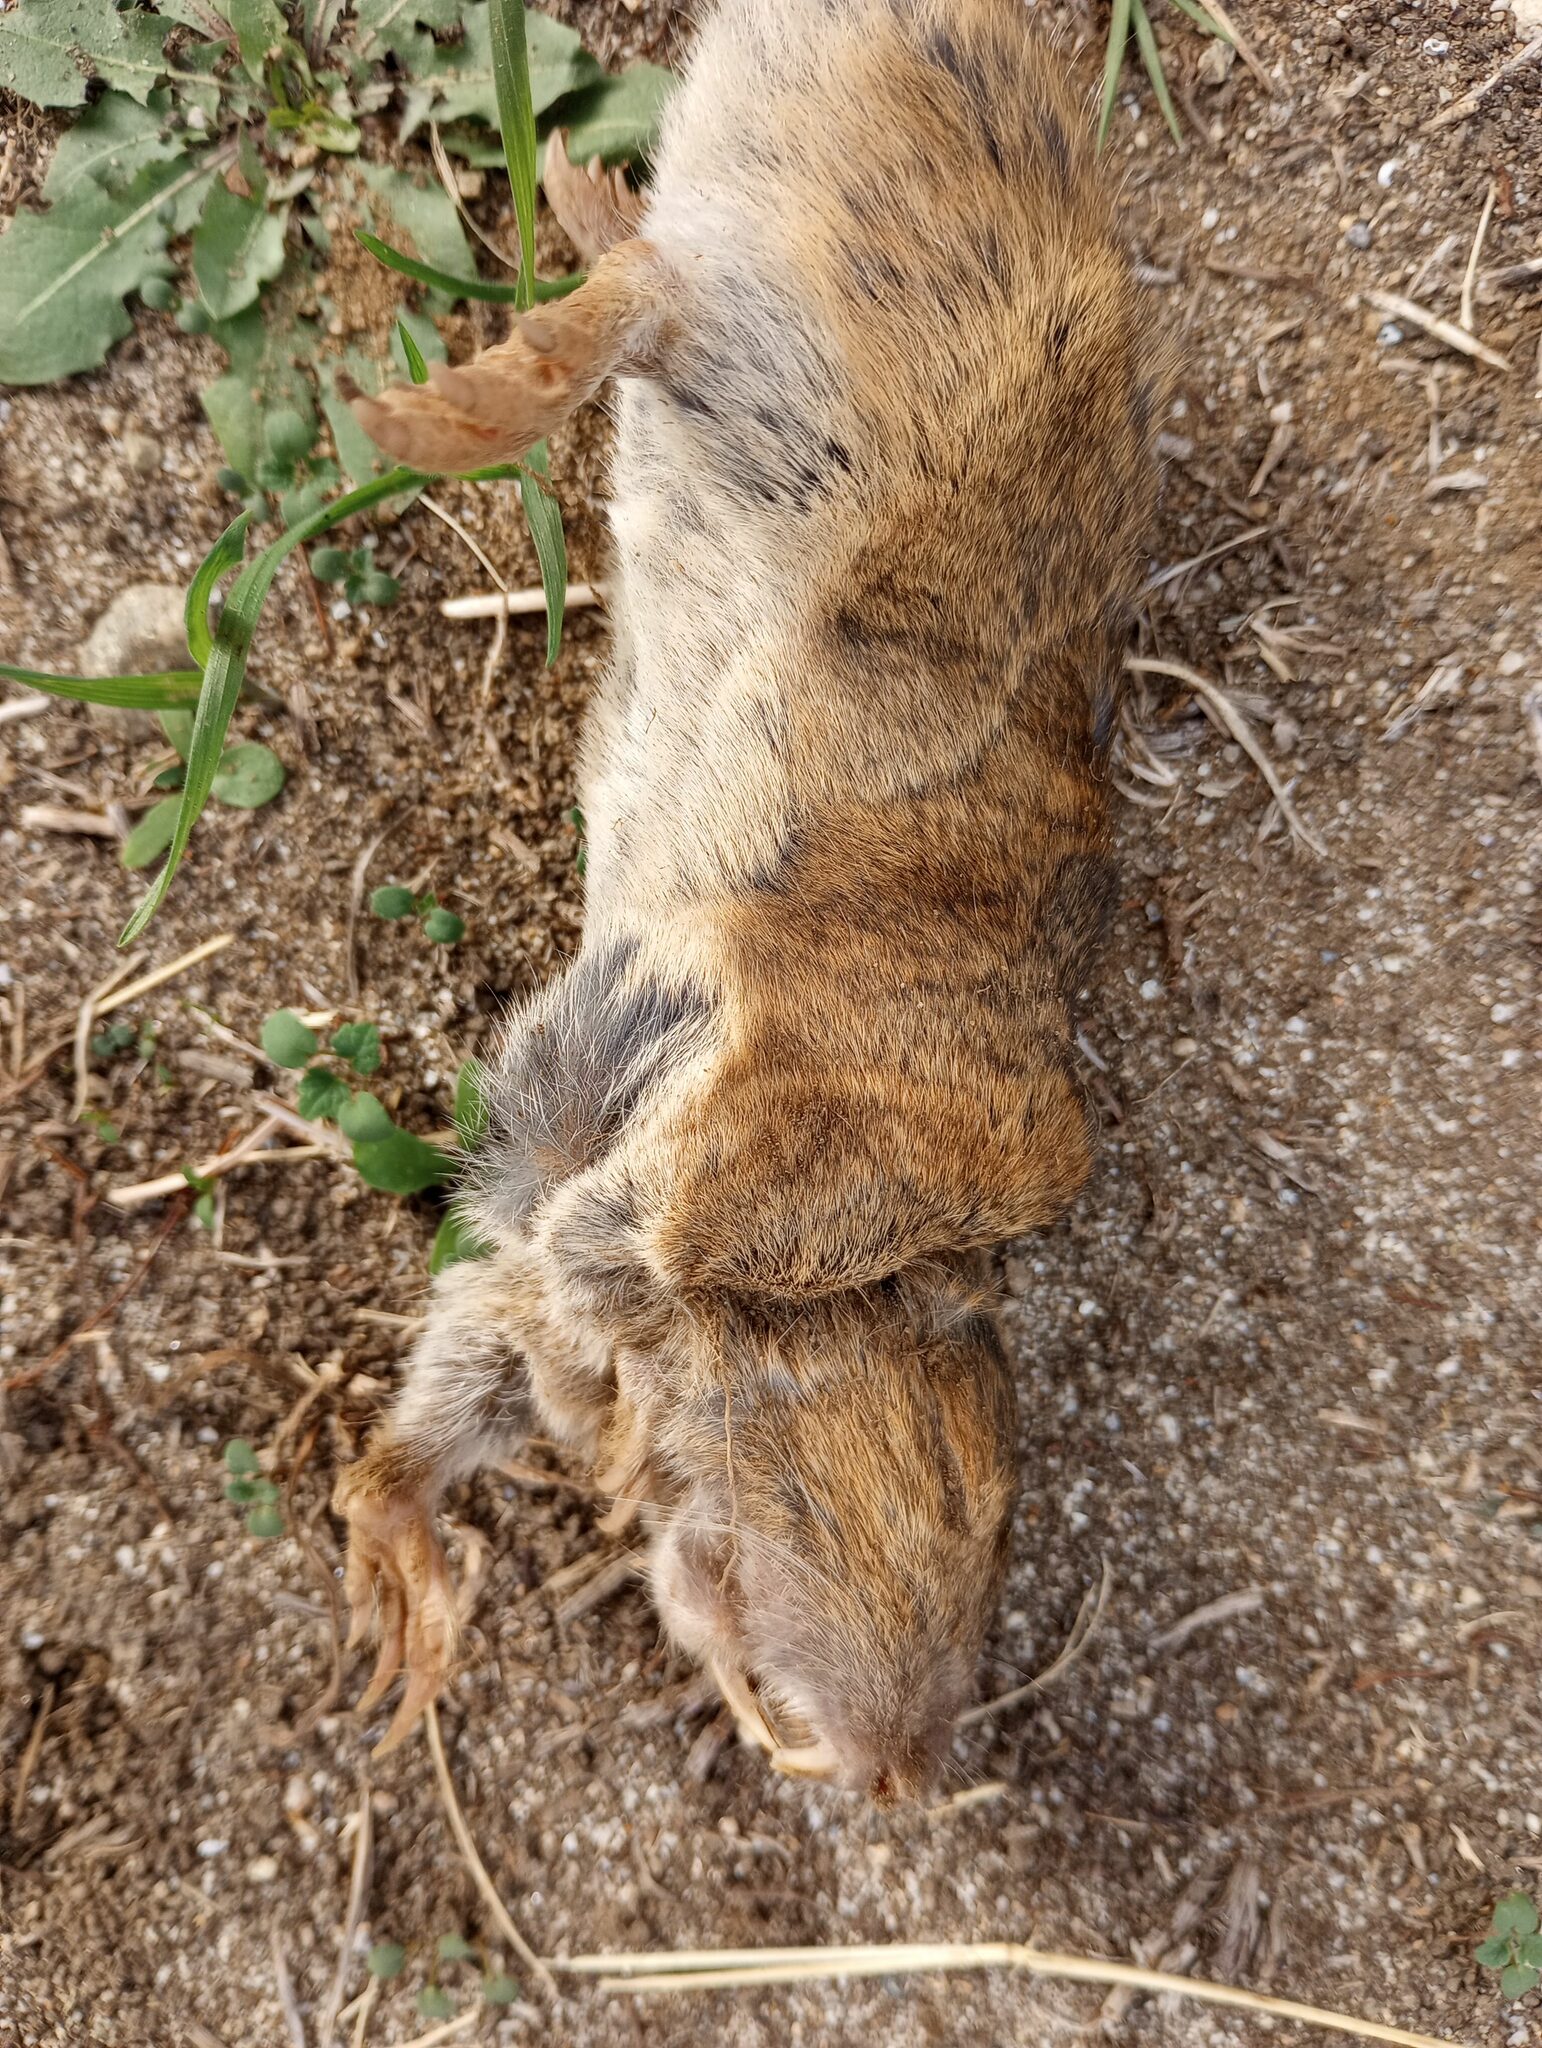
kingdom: Animalia
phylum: Chordata
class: Mammalia
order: Rodentia
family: Geomyidae
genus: Thomomys
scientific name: Thomomys bottae
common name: Botta's pocket gopher
